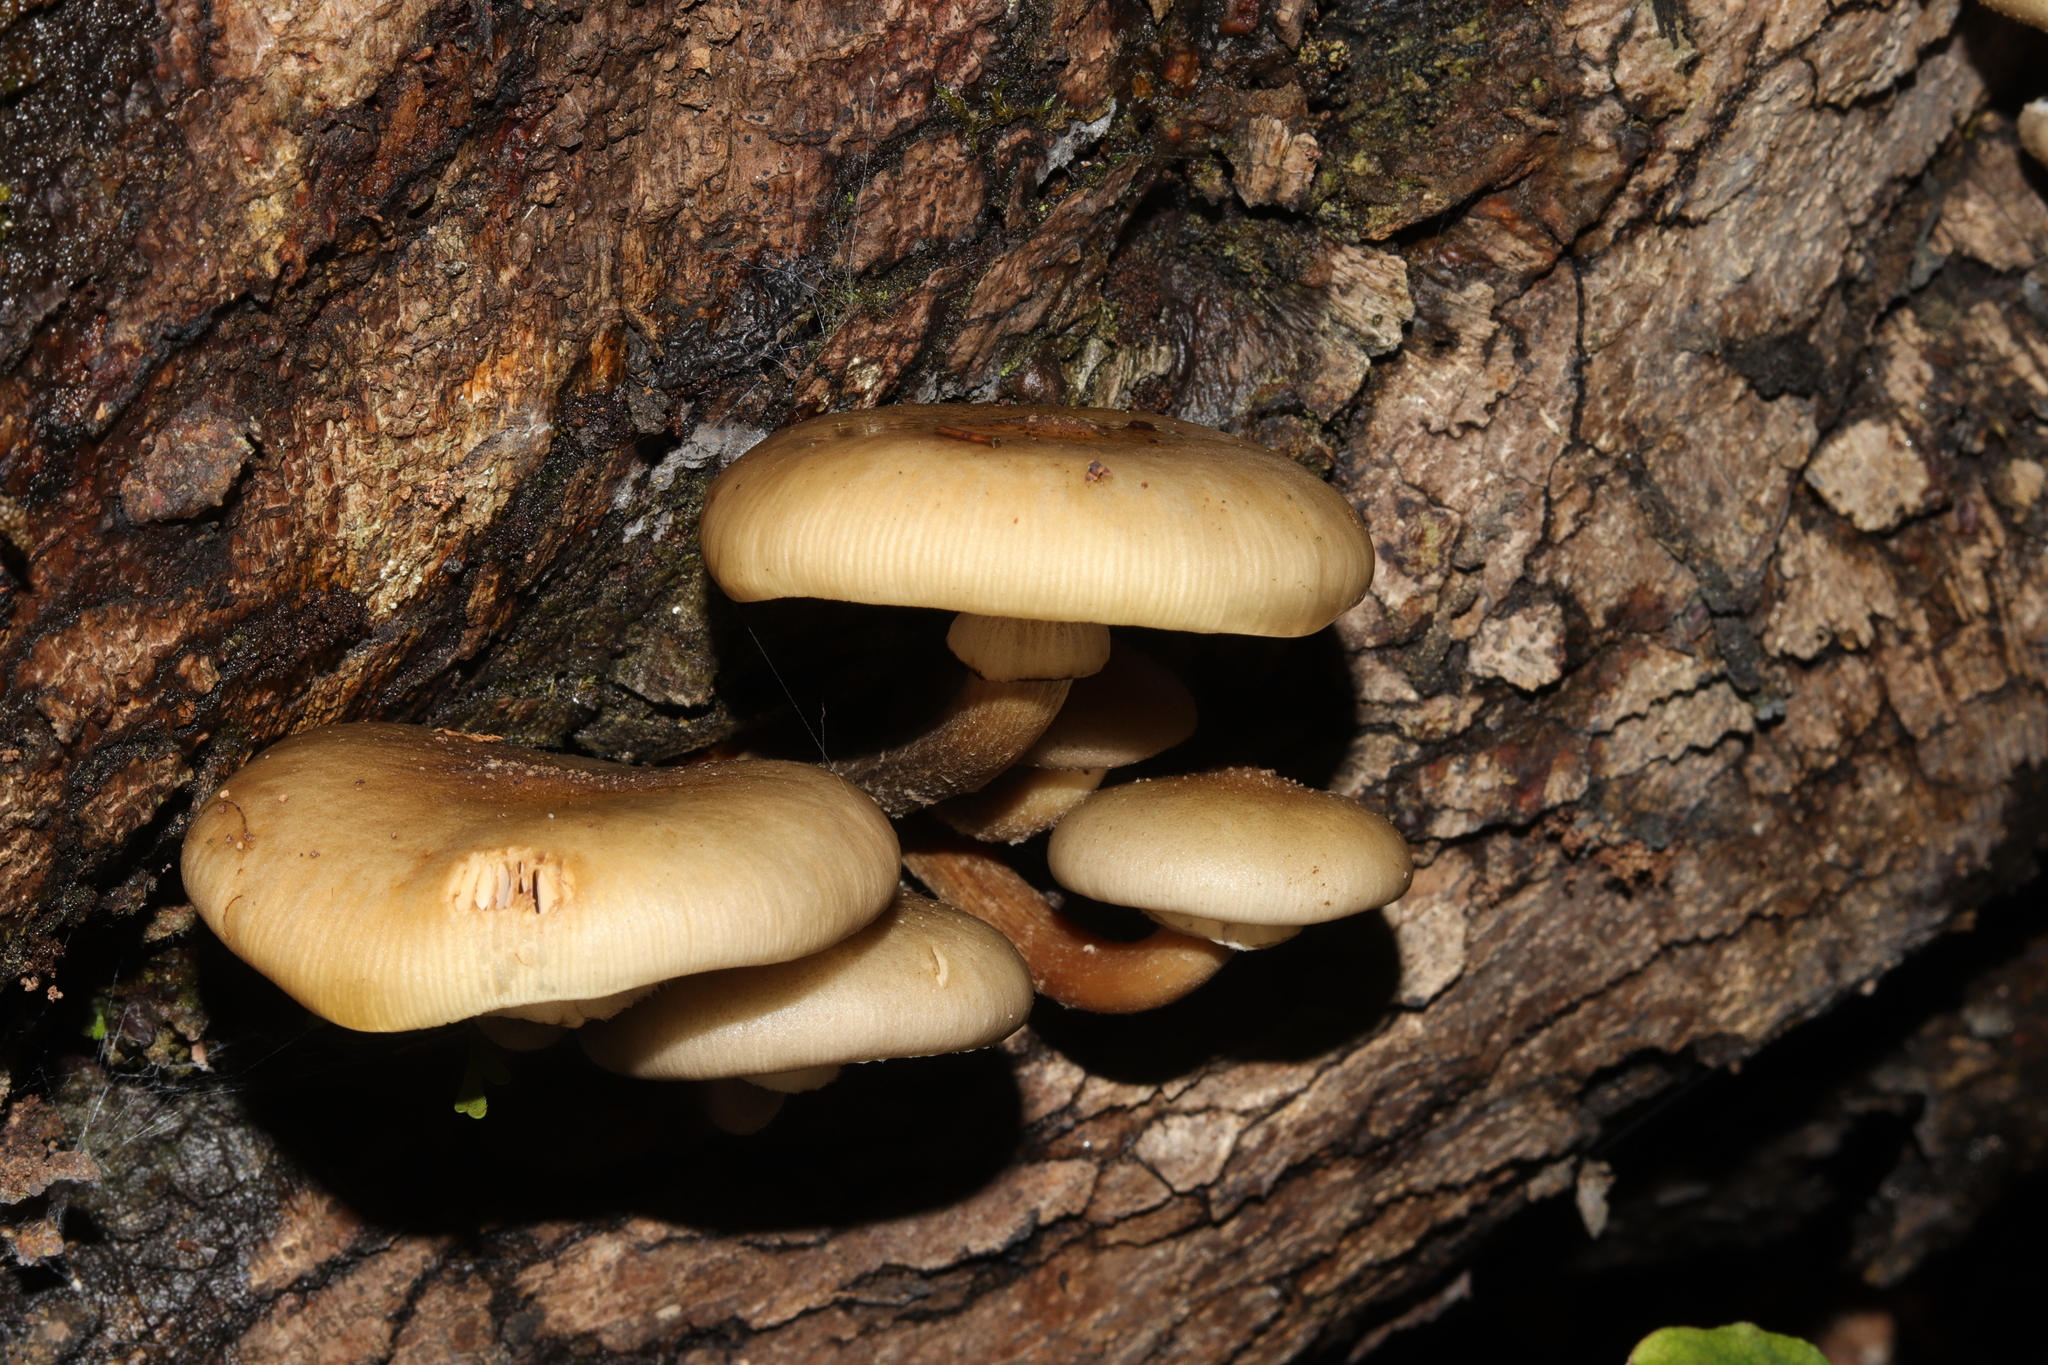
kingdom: Fungi
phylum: Basidiomycota
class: Agaricomycetes
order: Agaricales
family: Physalacriaceae
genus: Armillaria
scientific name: Armillaria novae-zelandiae
